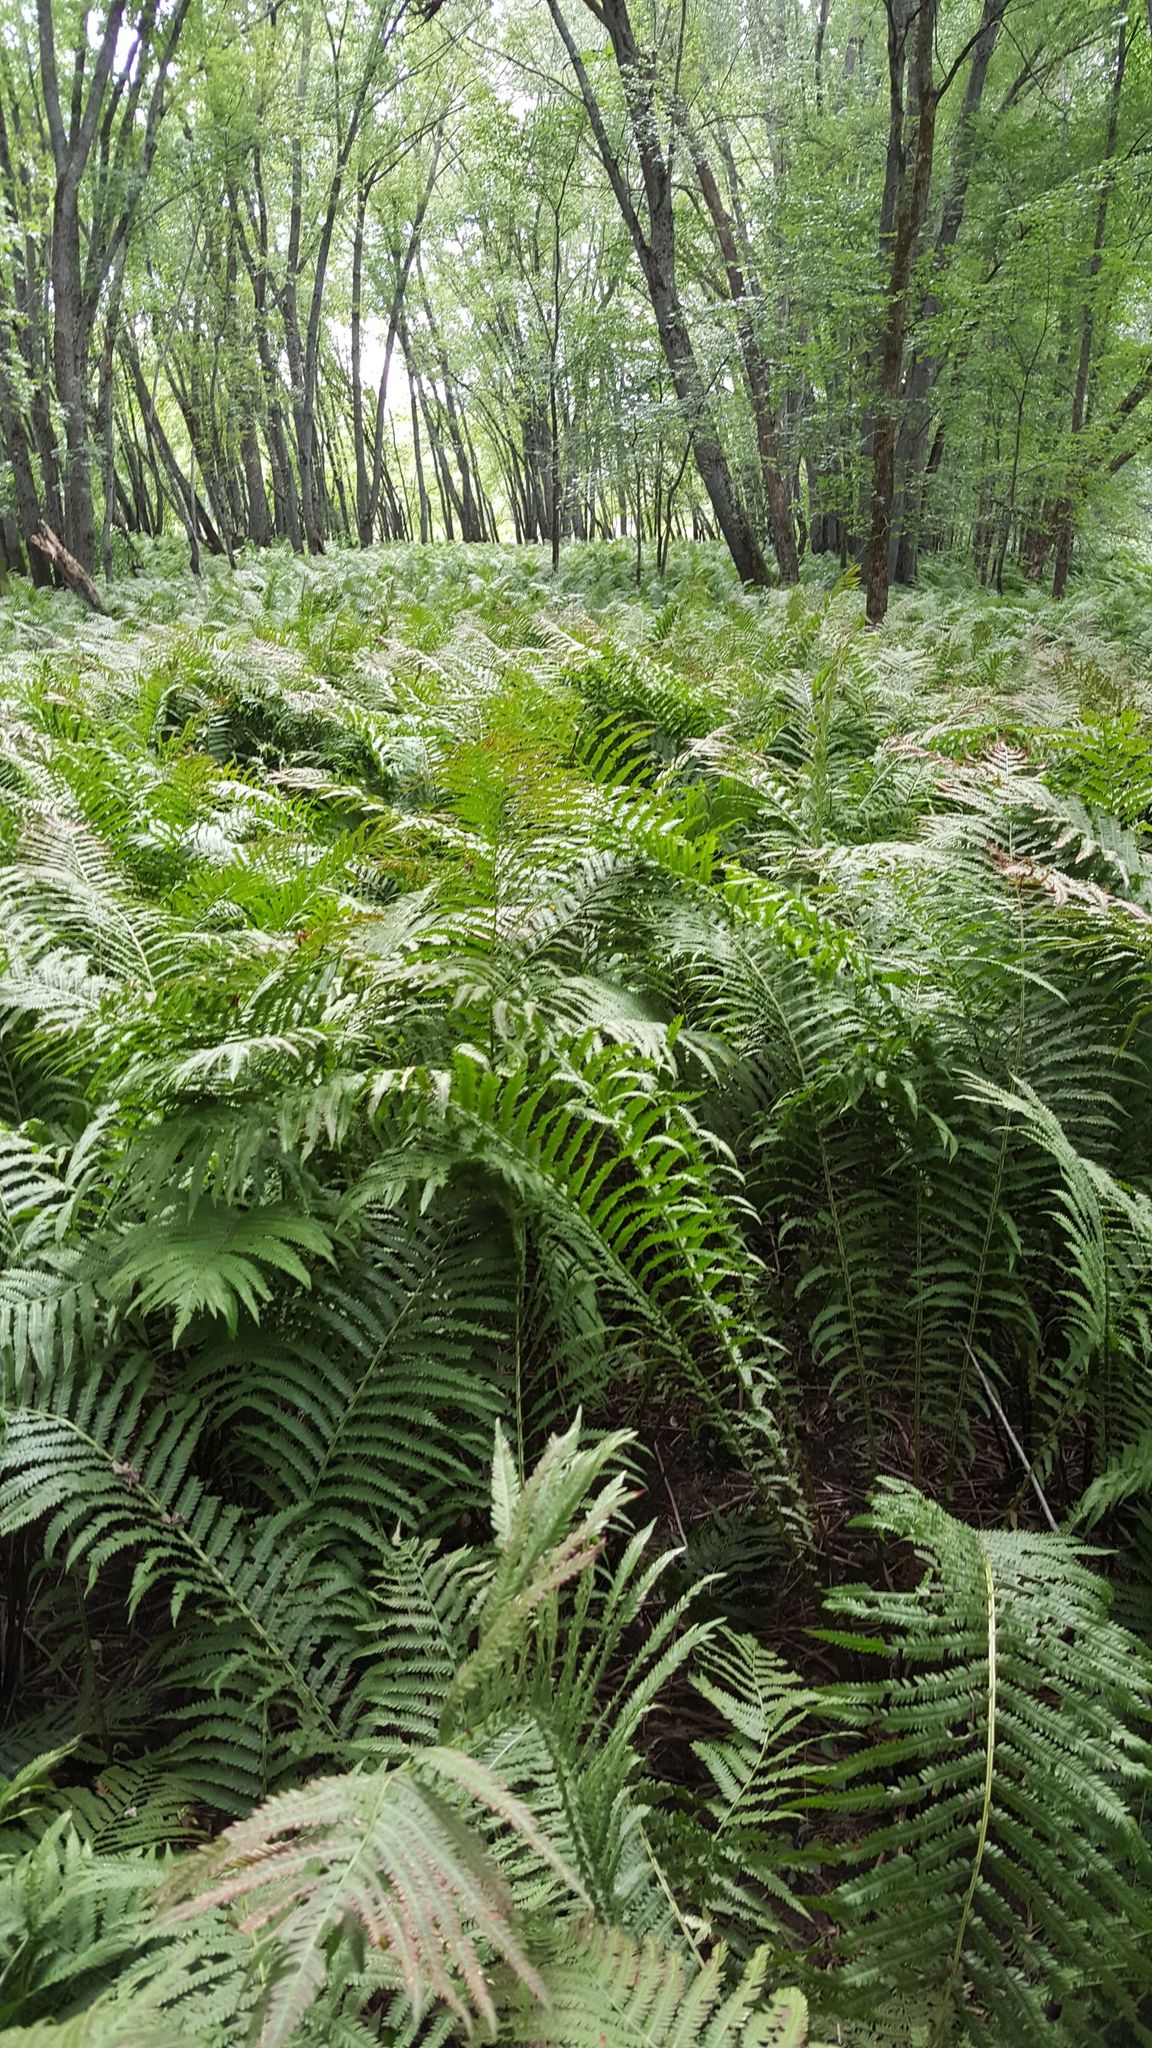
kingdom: Plantae
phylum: Tracheophyta
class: Polypodiopsida
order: Polypodiales
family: Onocleaceae
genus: Matteuccia
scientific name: Matteuccia struthiopteris
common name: Ostrich fern
